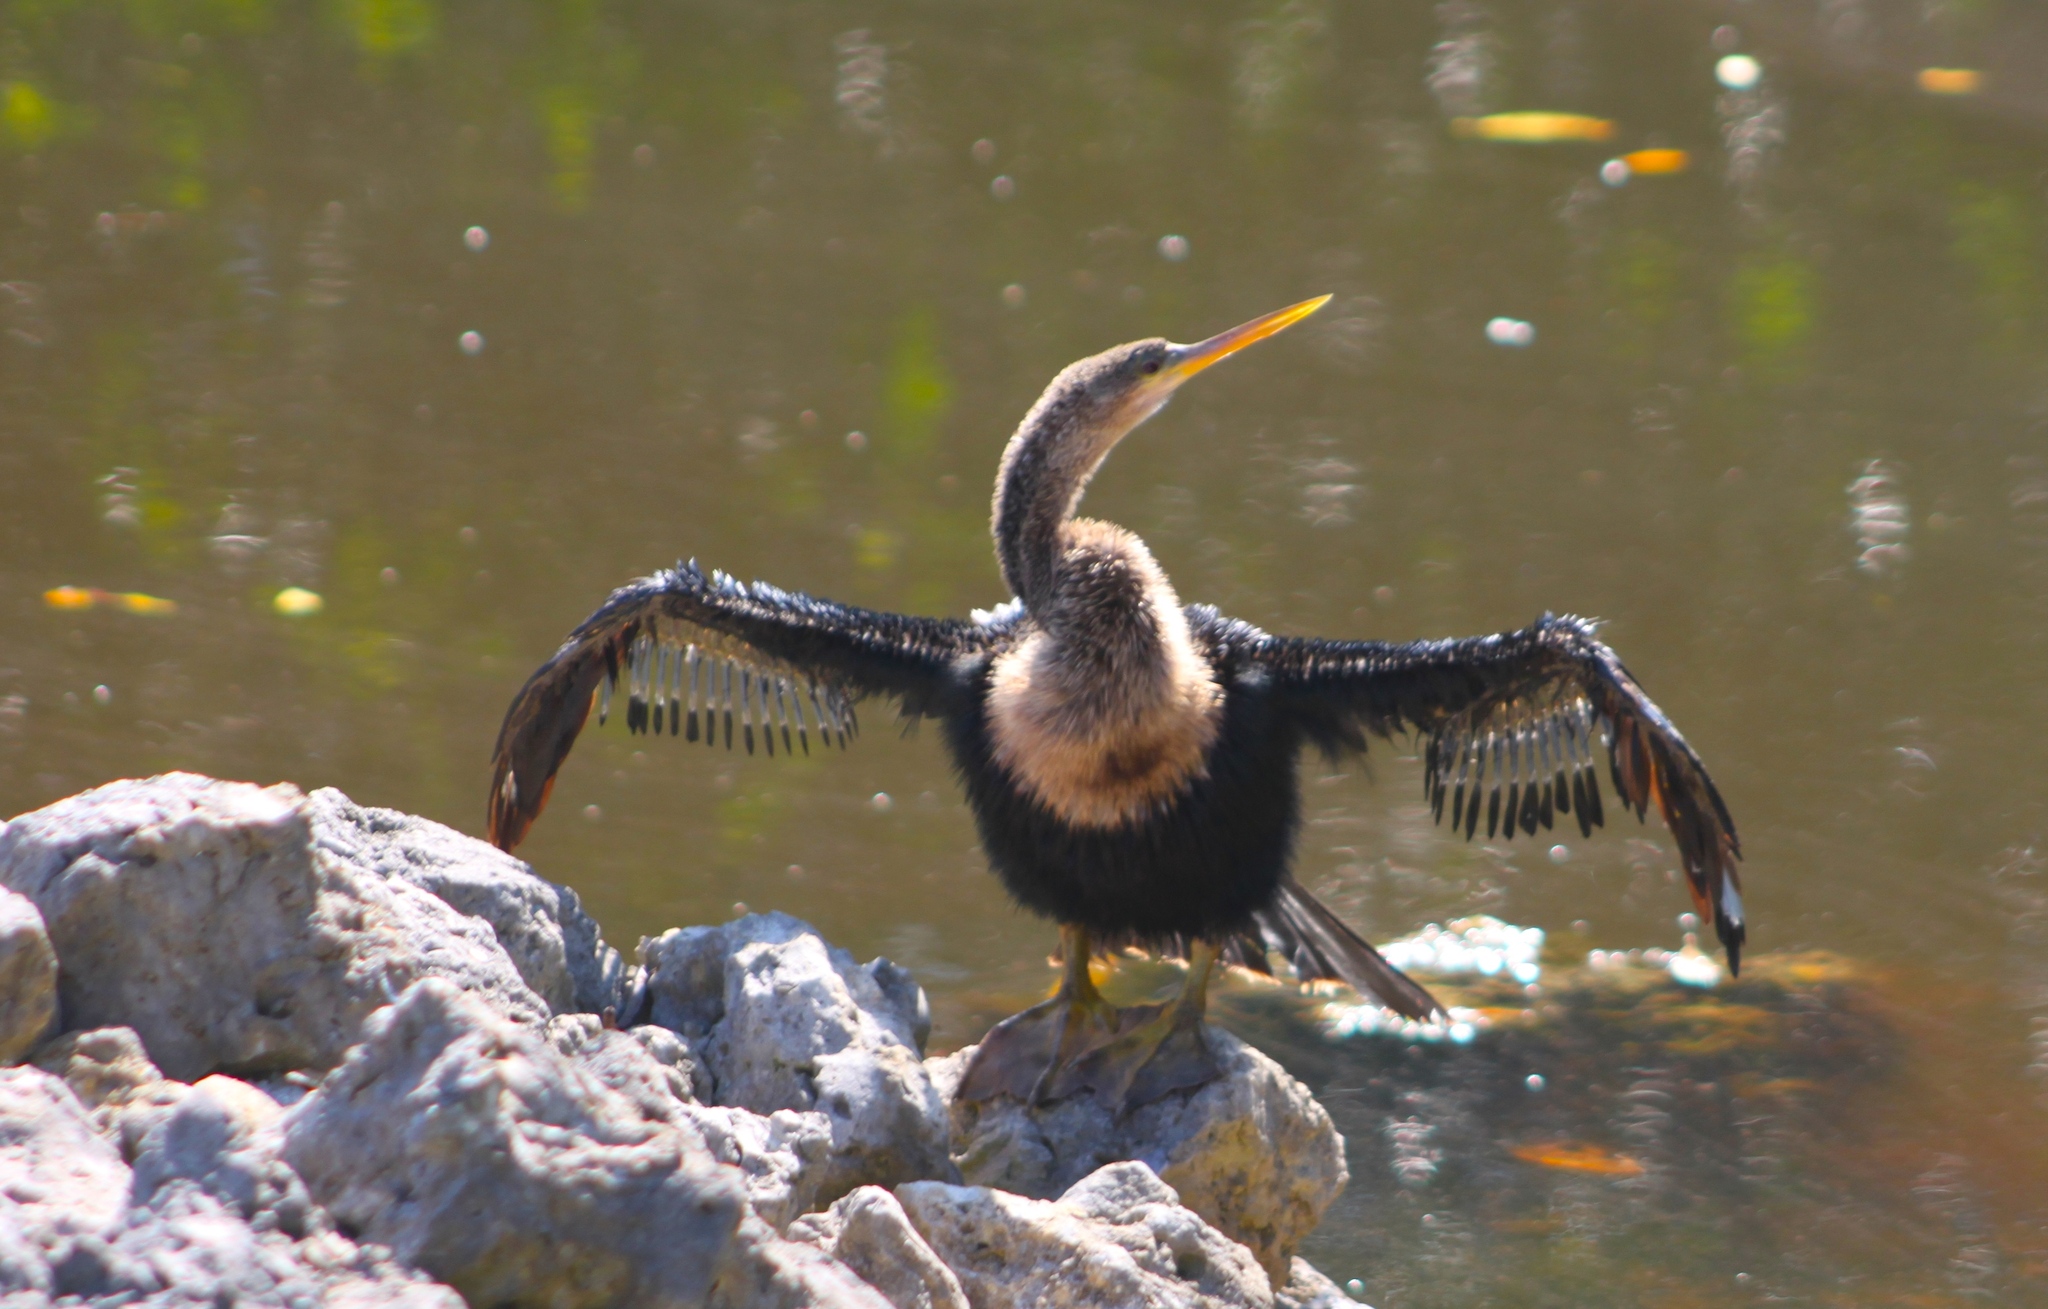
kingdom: Animalia
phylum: Chordata
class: Aves
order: Suliformes
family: Anhingidae
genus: Anhinga
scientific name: Anhinga anhinga
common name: Anhinga
